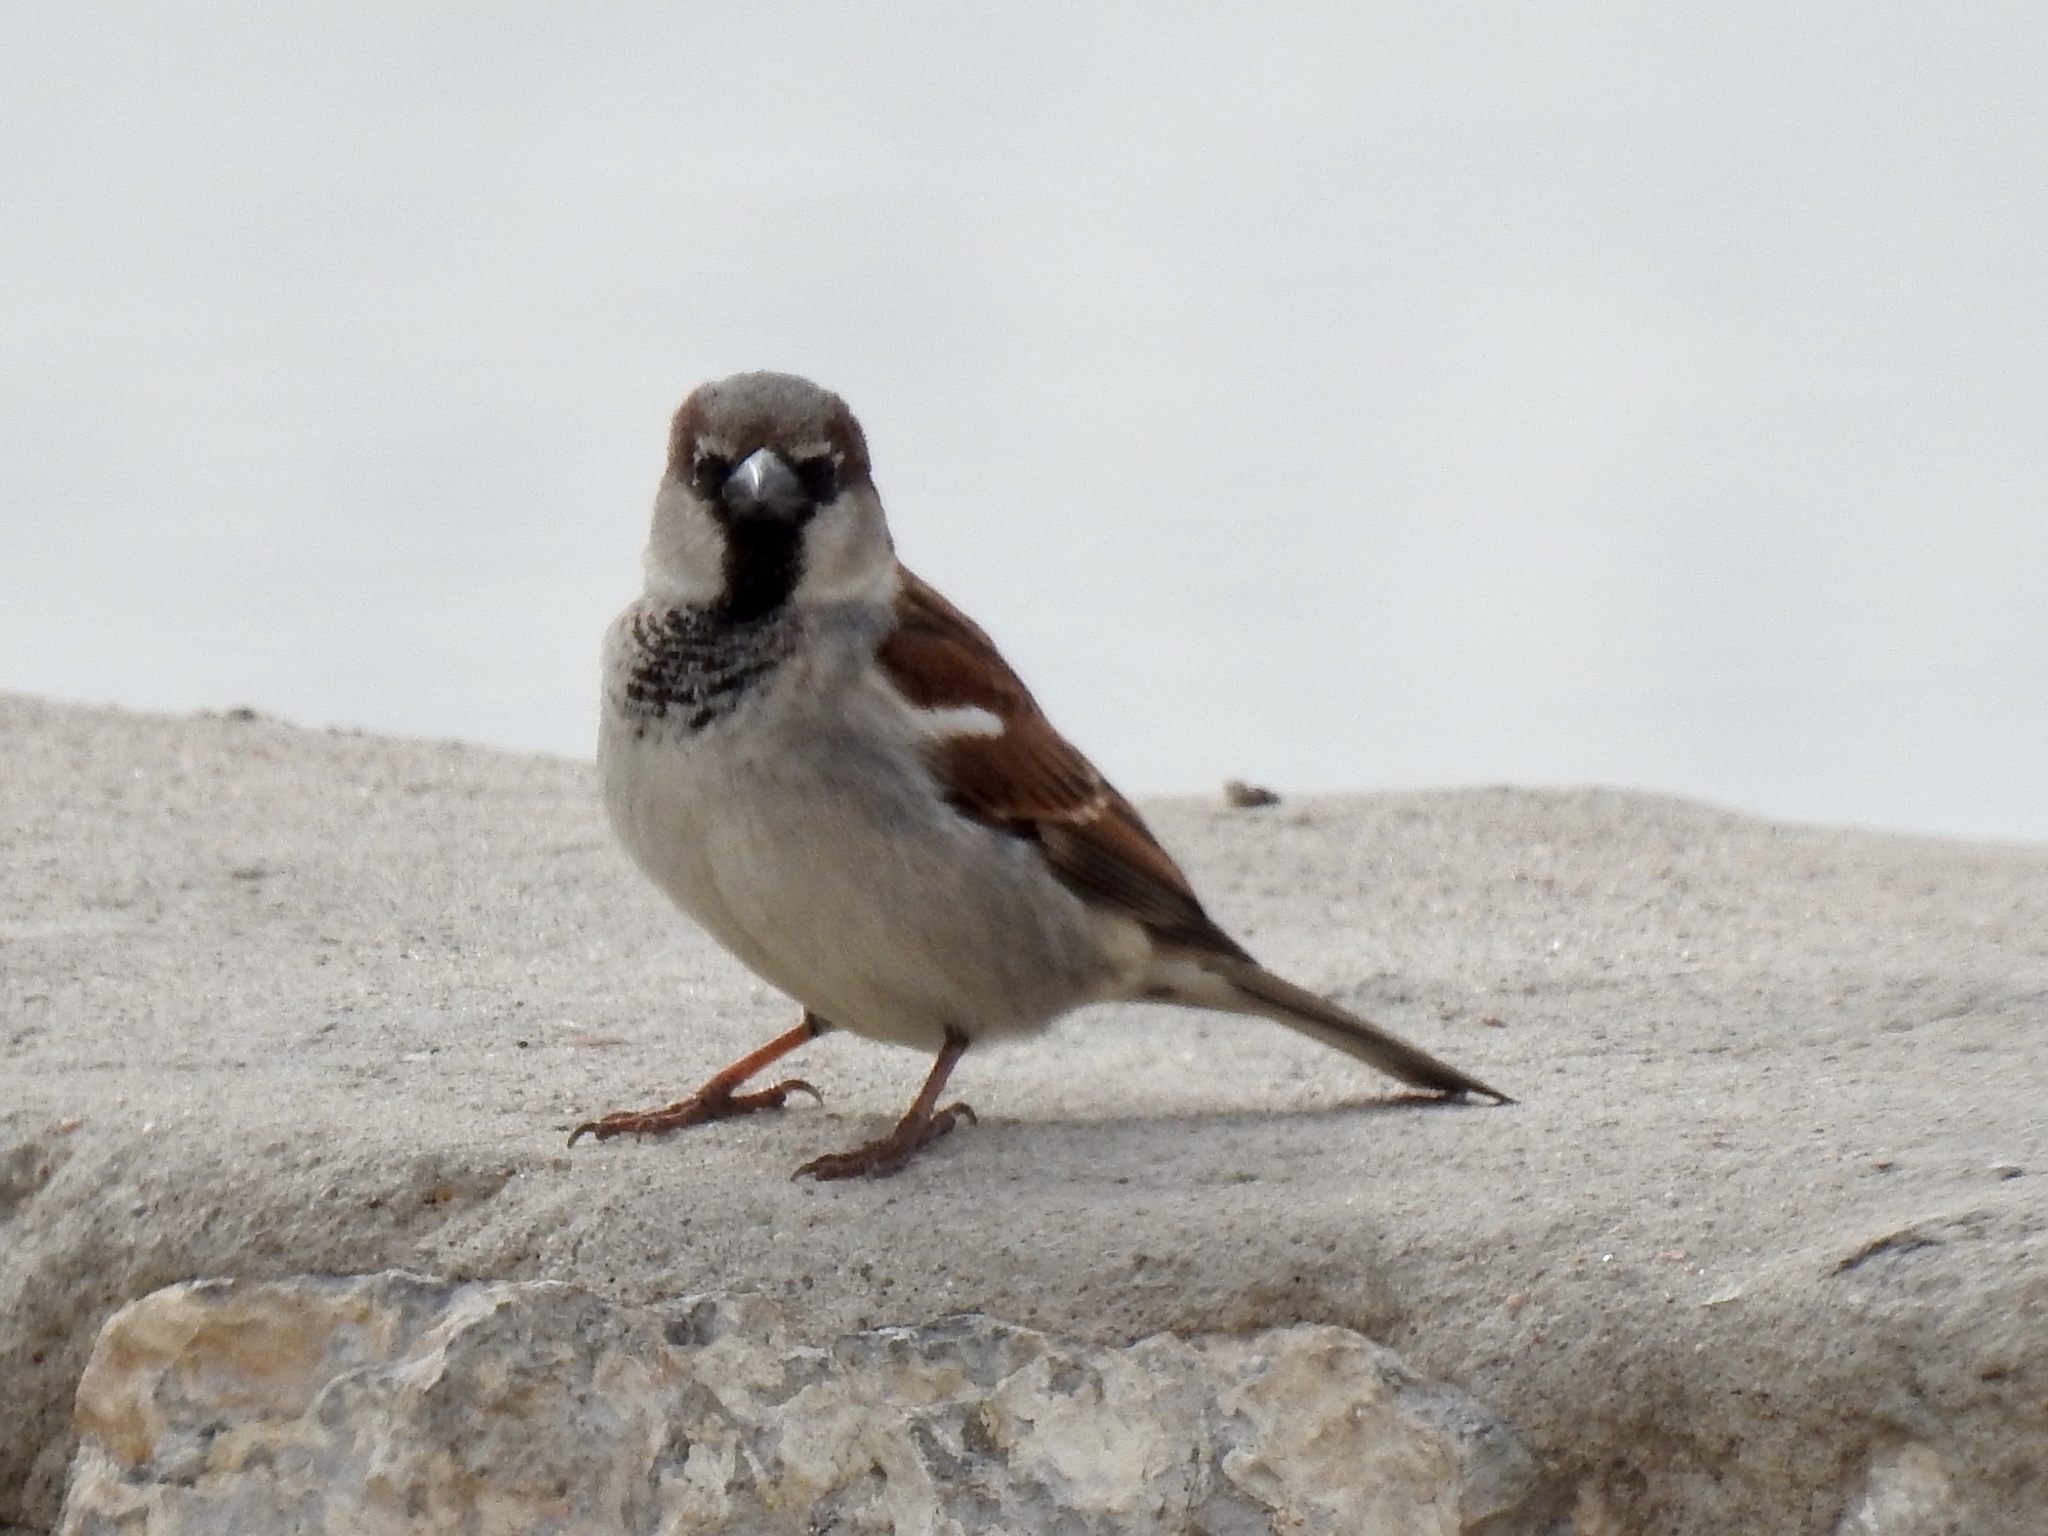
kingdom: Animalia
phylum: Chordata
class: Aves
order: Passeriformes
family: Passeridae
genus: Passer
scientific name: Passer domesticus
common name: House sparrow
